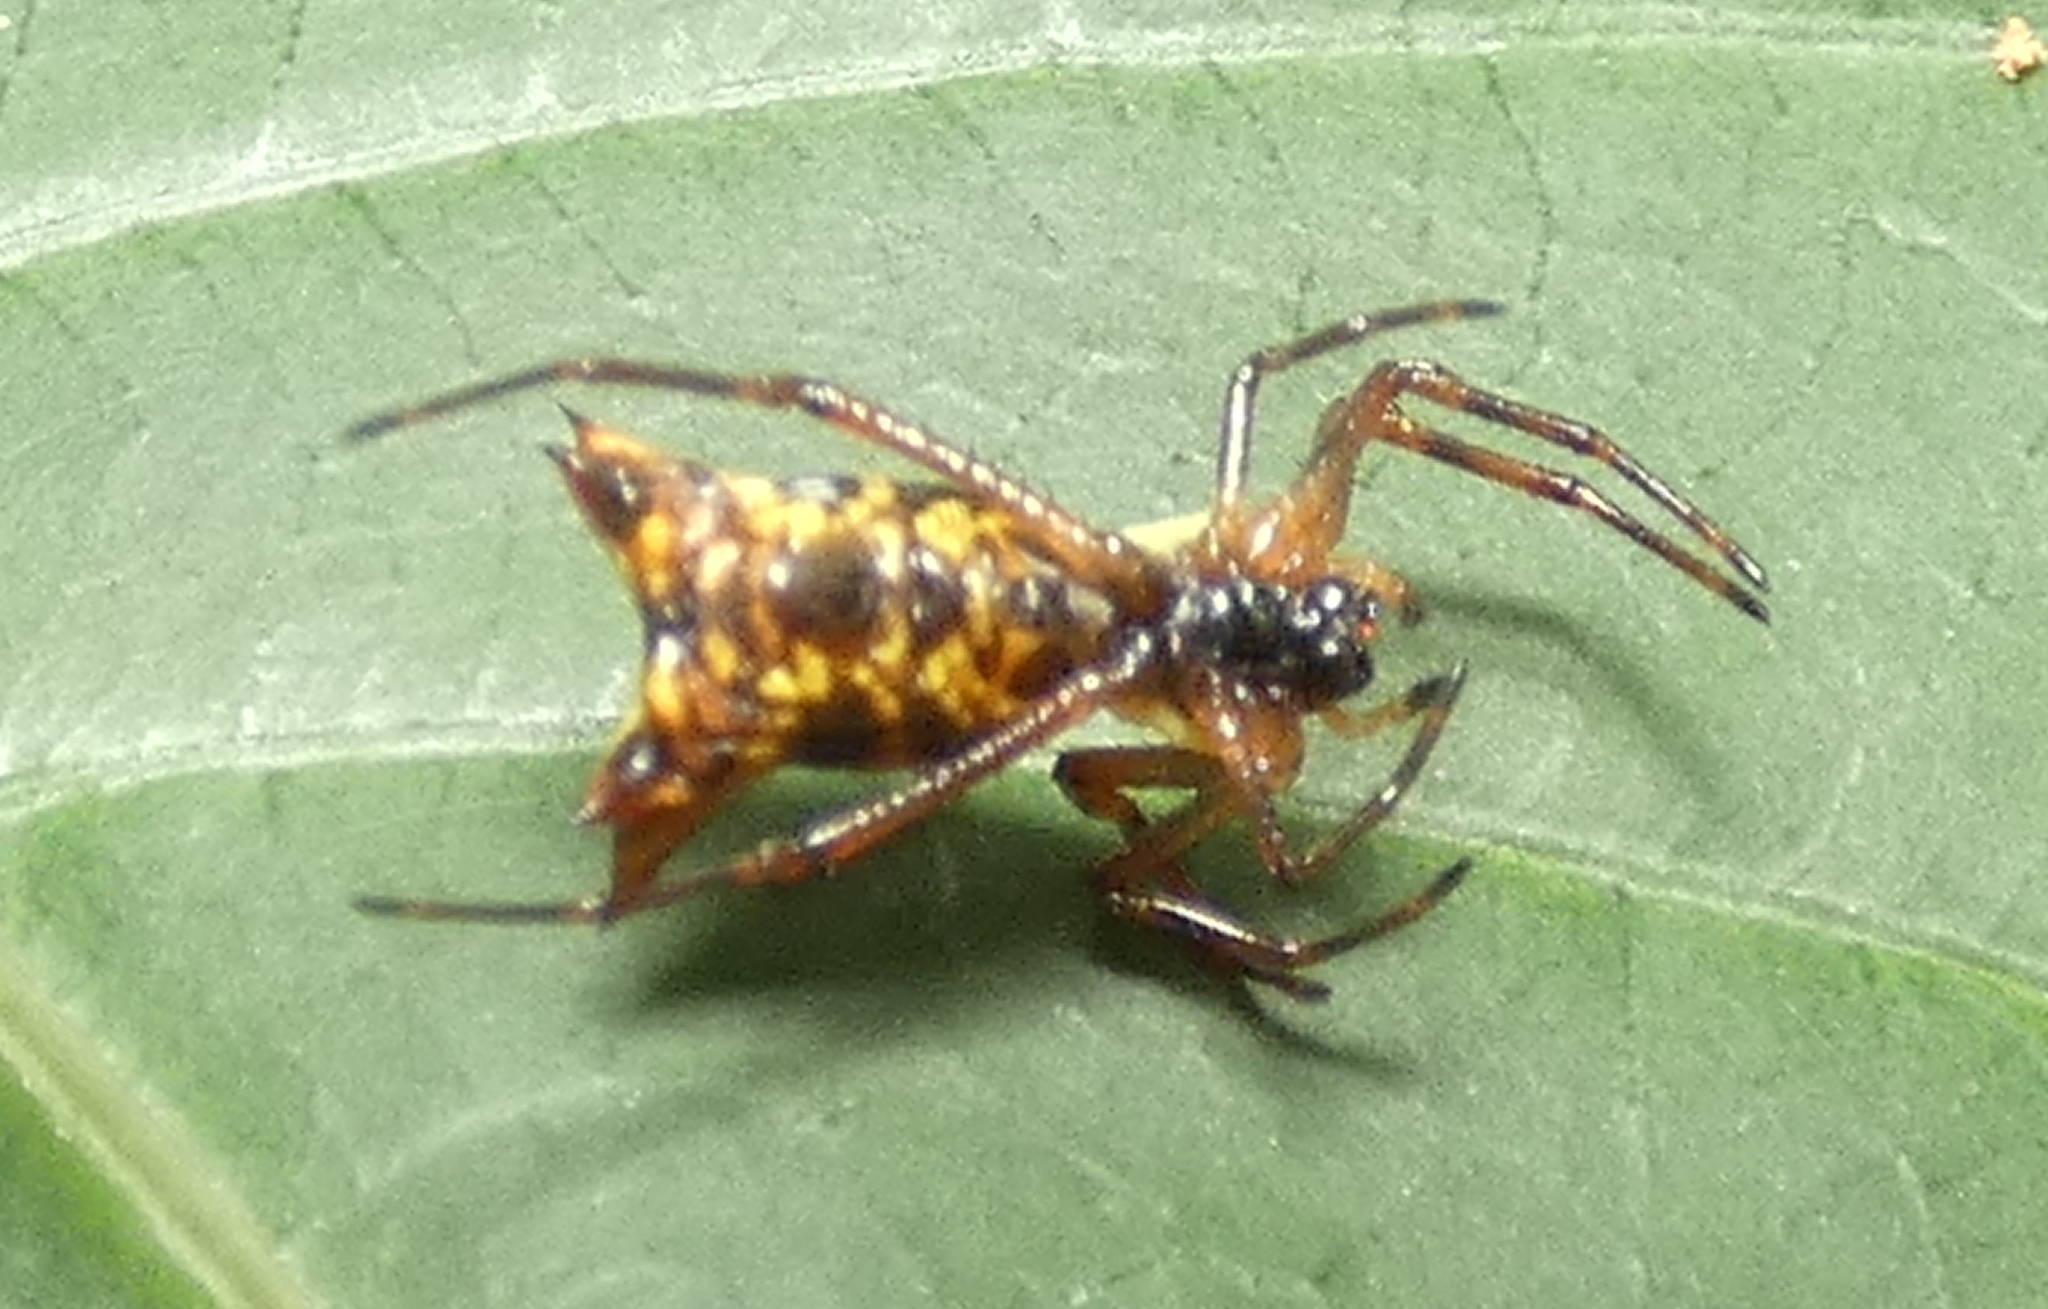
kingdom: Animalia
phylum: Arthropoda
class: Arachnida
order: Araneae
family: Araneidae
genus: Micrathena
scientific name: Micrathena fissispina
